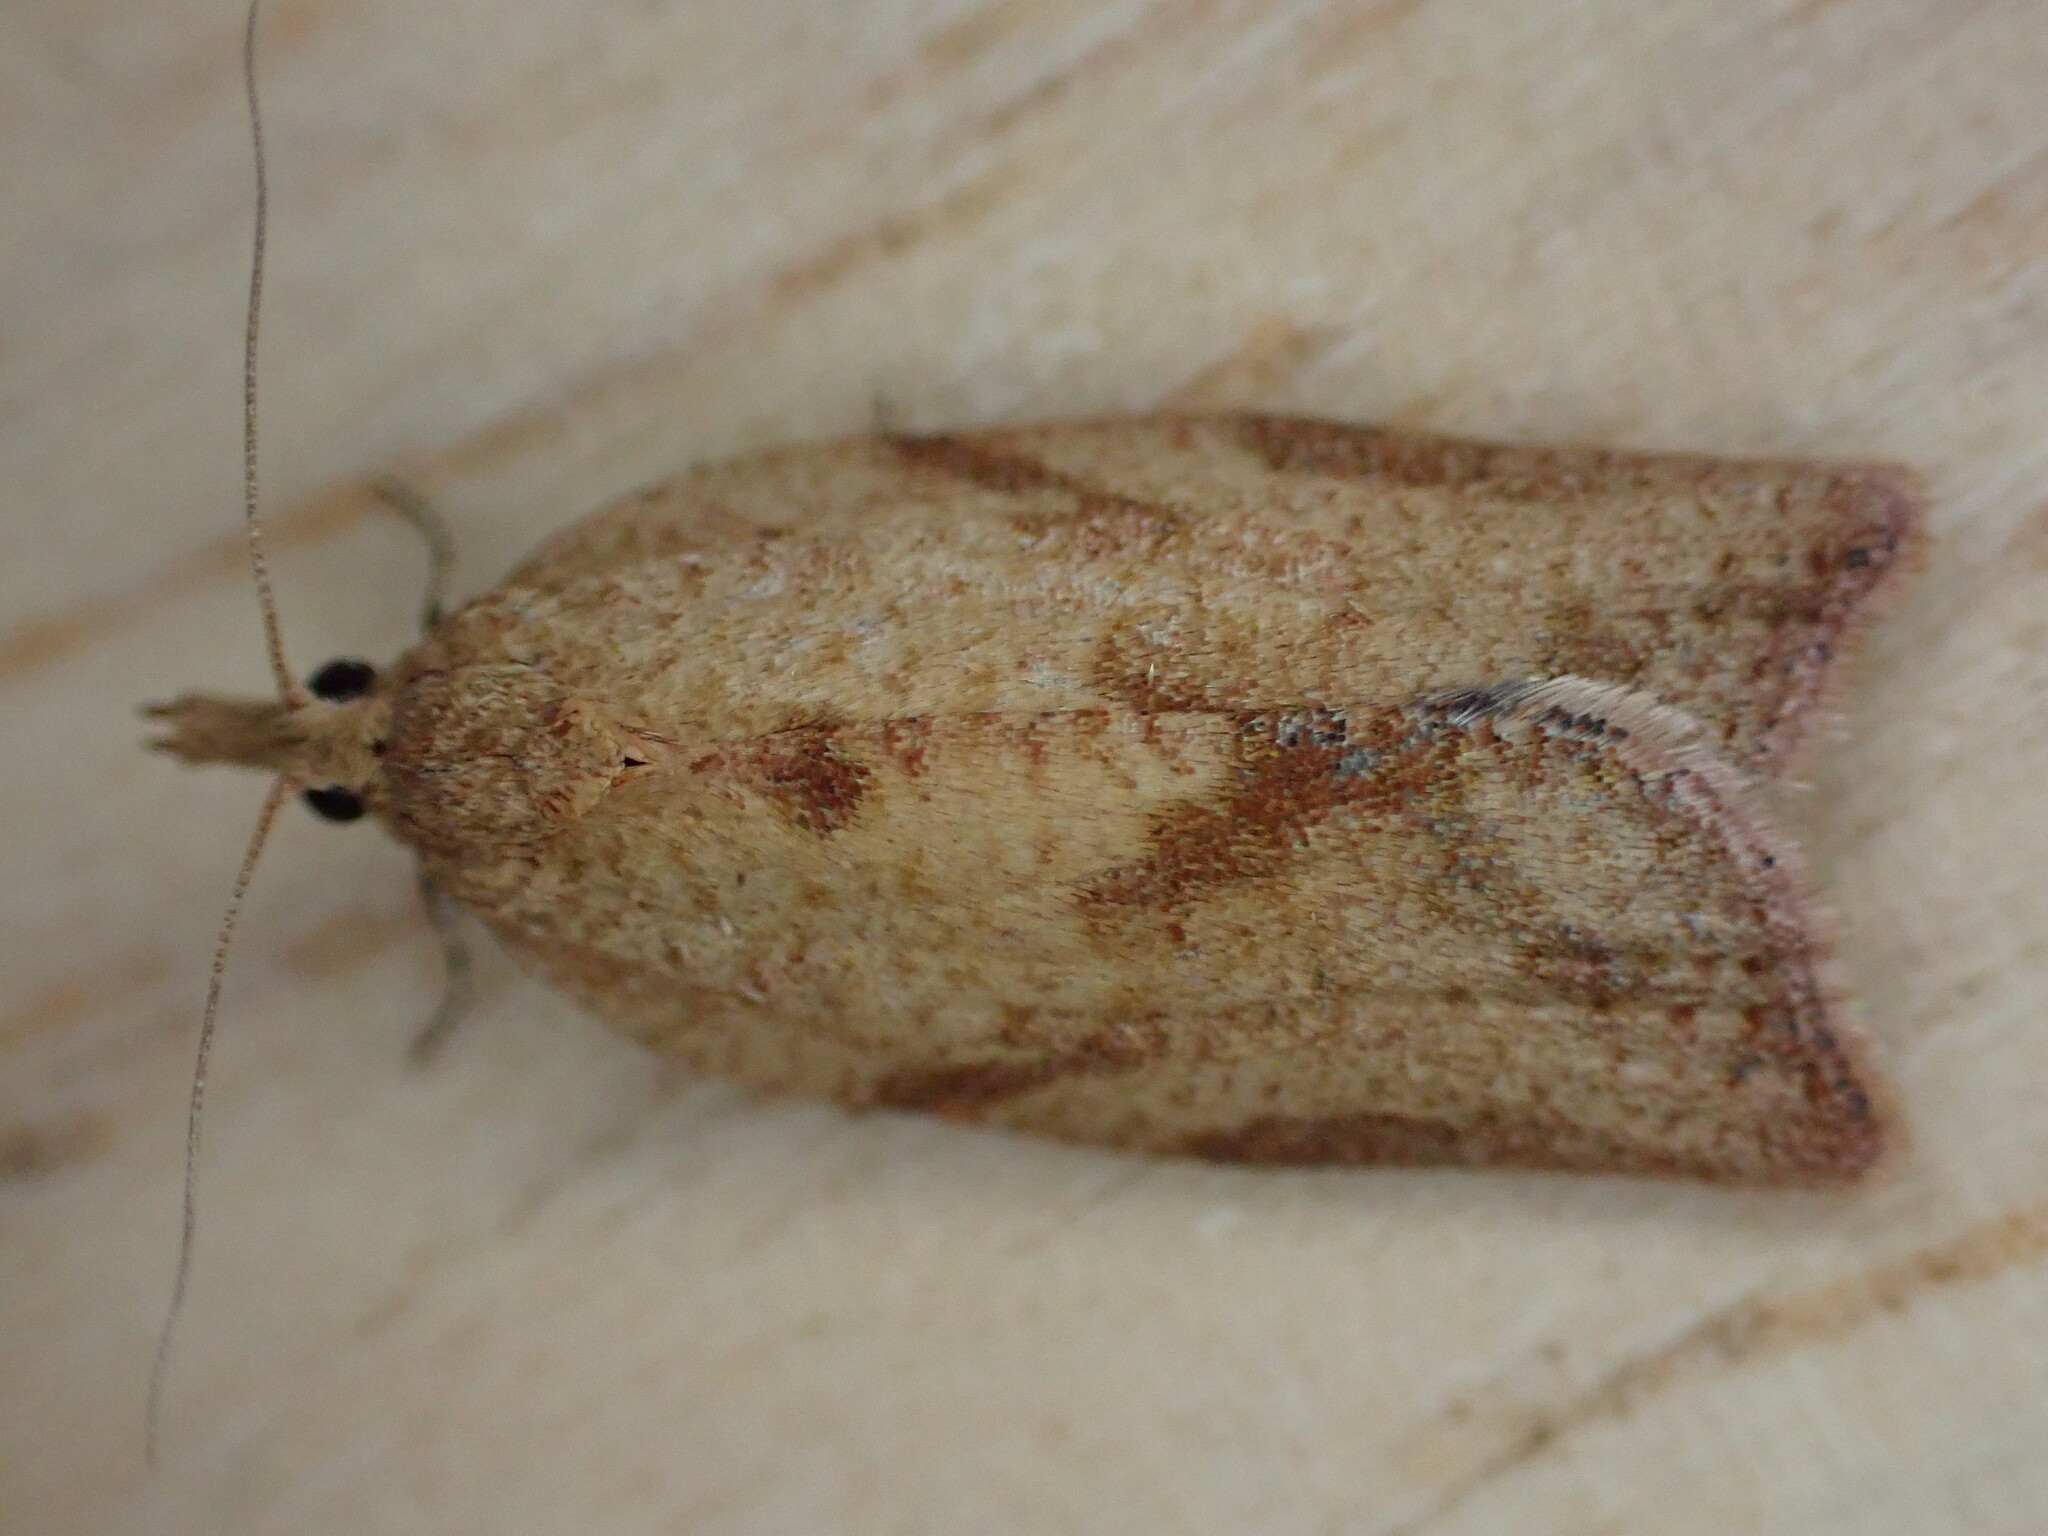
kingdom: Animalia
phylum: Arthropoda
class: Insecta
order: Lepidoptera
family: Tortricidae
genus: Epiphyas
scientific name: Epiphyas postvittana
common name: Light brown apple moth
